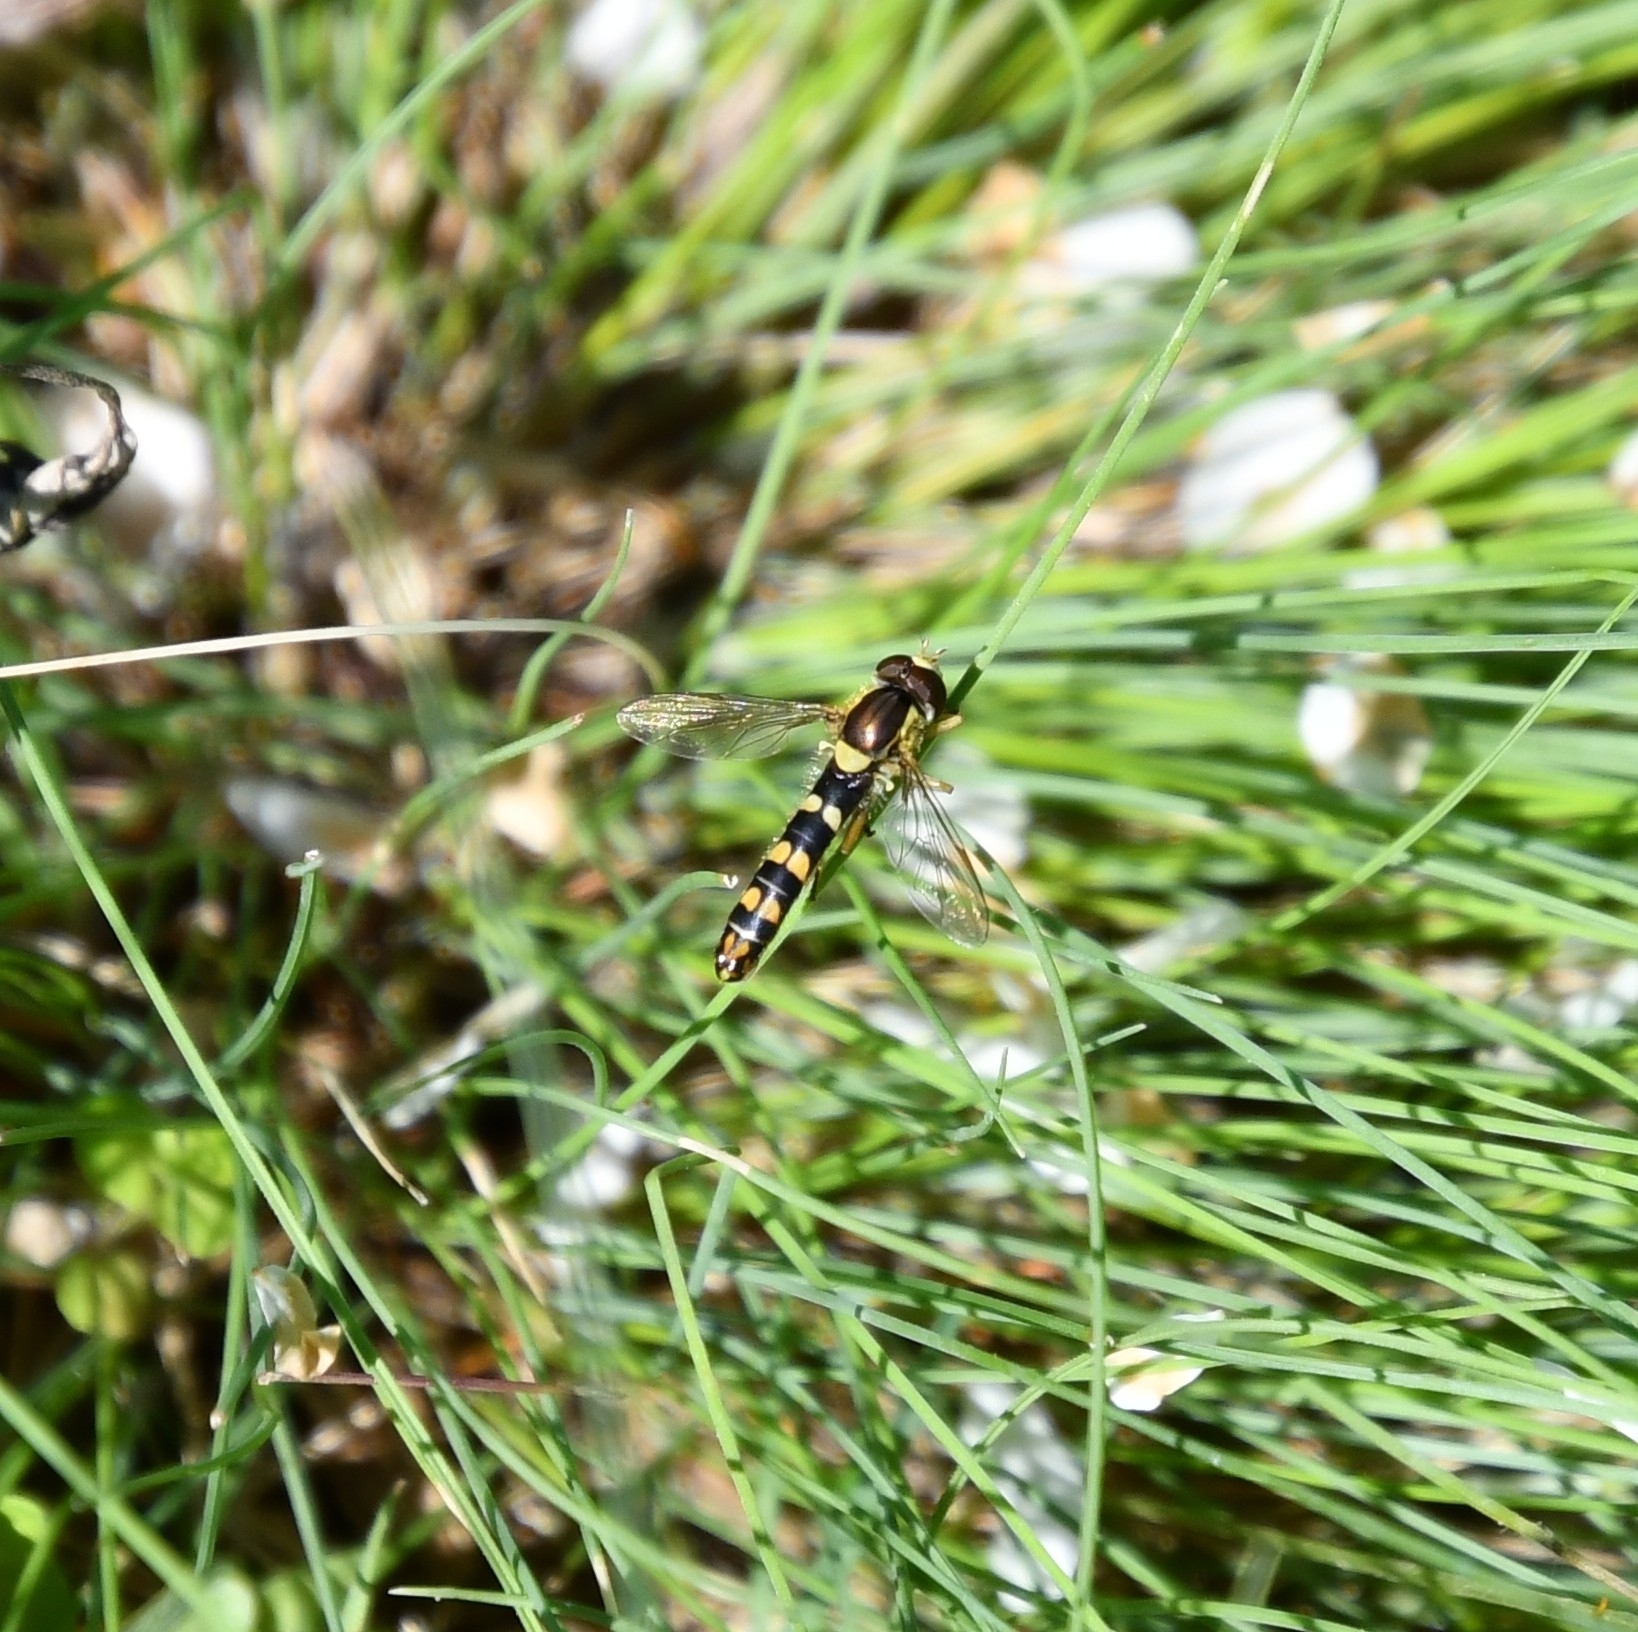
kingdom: Animalia
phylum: Arthropoda
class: Insecta
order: Diptera
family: Syrphidae
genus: Sphaerophoria
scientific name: Sphaerophoria scripta
